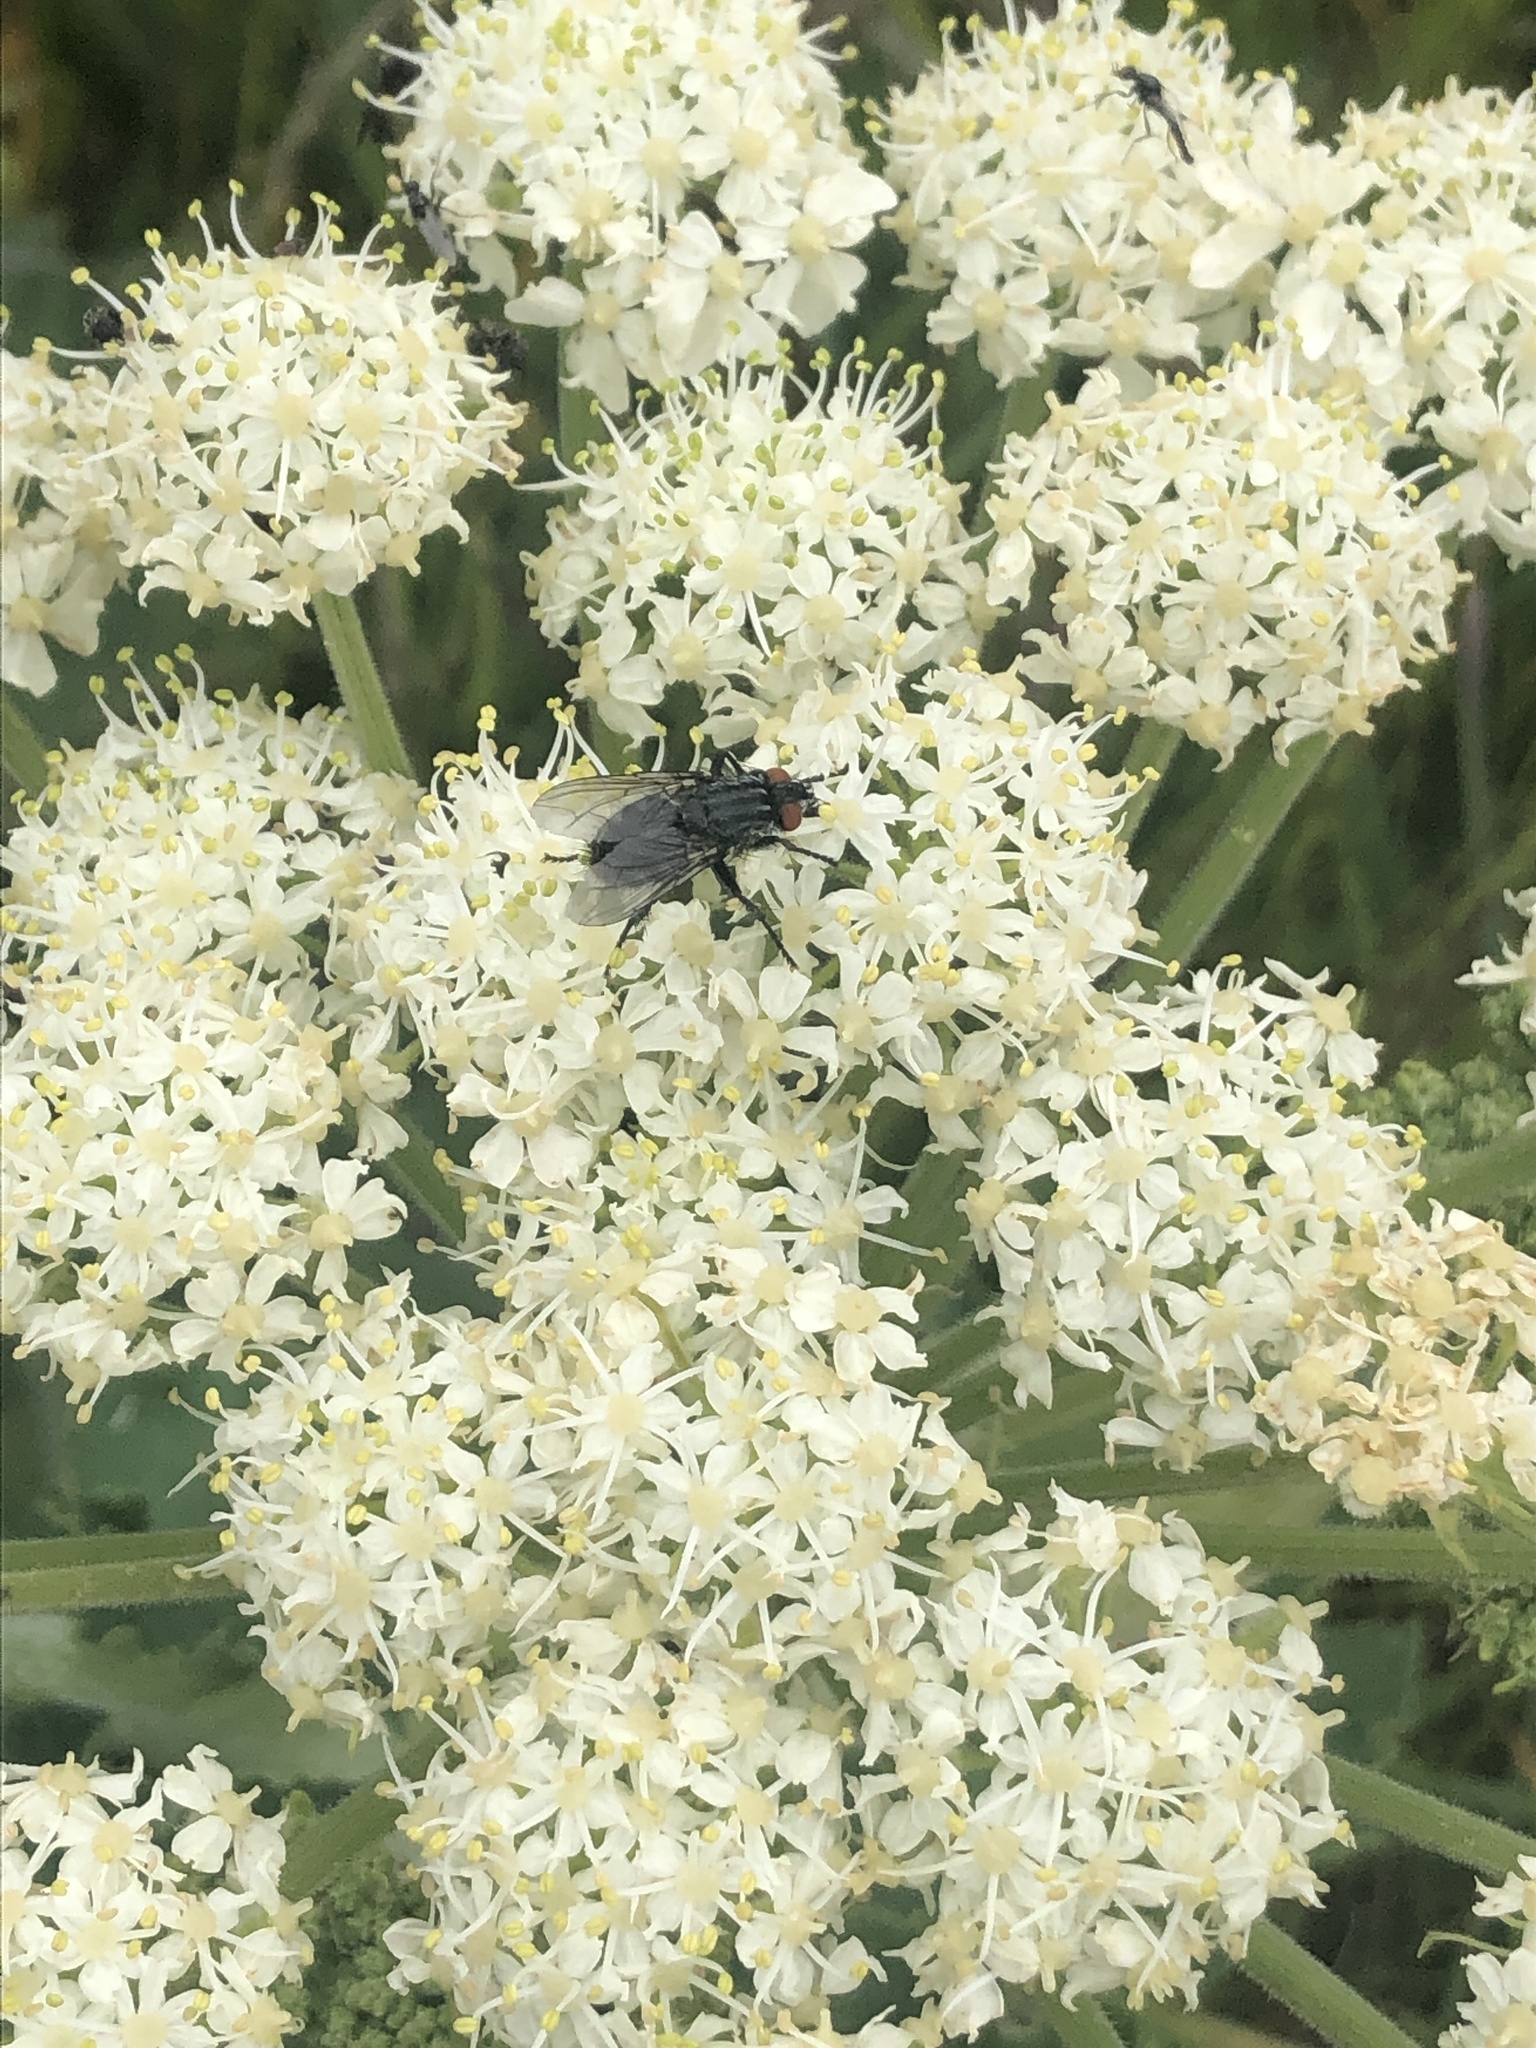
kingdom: Plantae
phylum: Tracheophyta
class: Magnoliopsida
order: Apiales
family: Apiaceae
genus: Heracleum
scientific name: Heracleum maximum
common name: American cow parsnip
